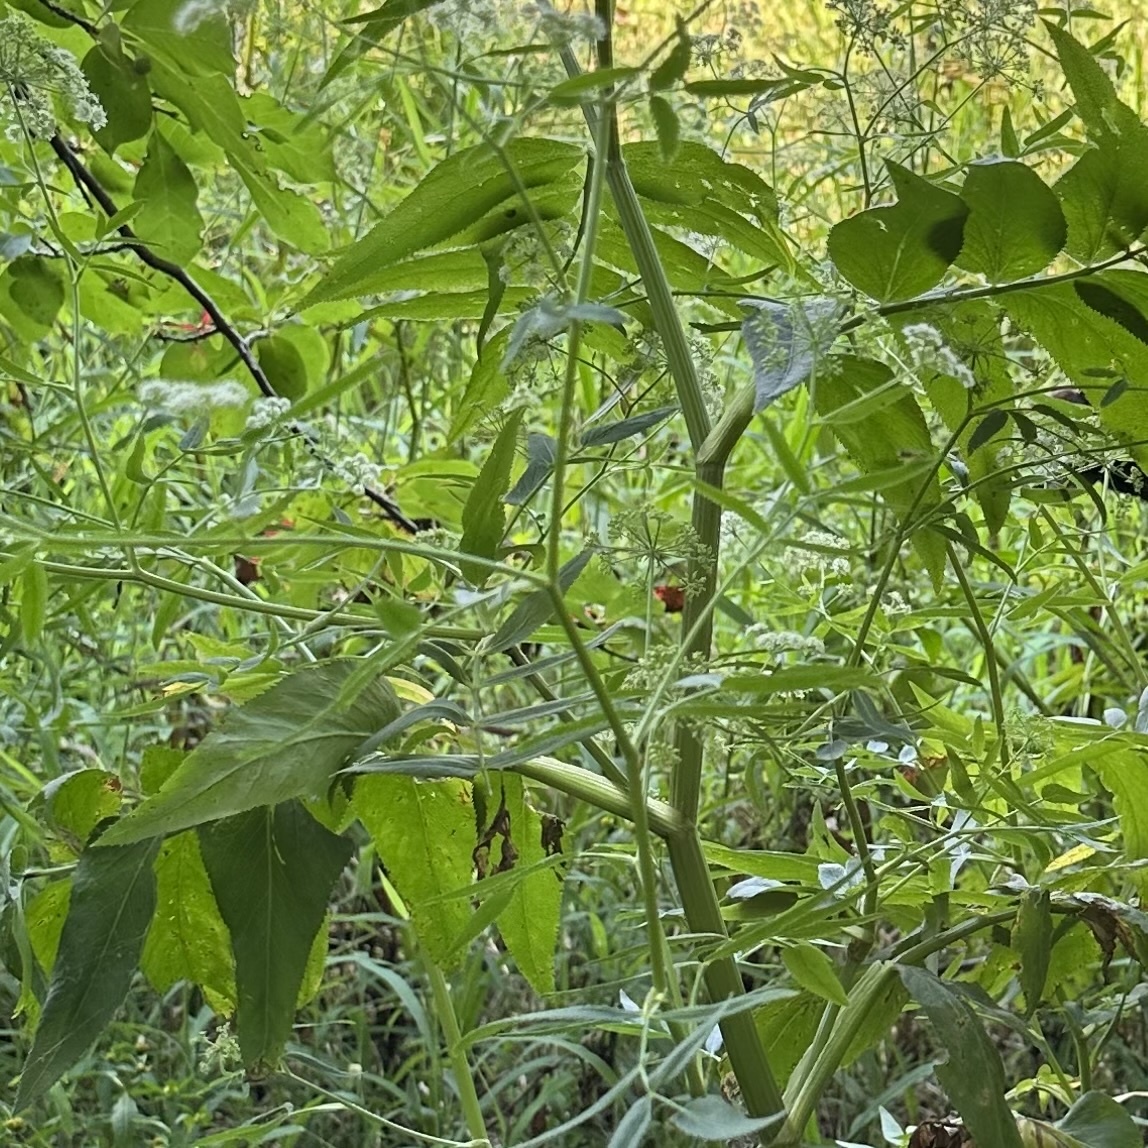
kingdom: Plantae
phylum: Tracheophyta
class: Magnoliopsida
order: Apiales
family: Apiaceae
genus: Sium
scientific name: Sium suave
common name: Hemlock water-parsnip
